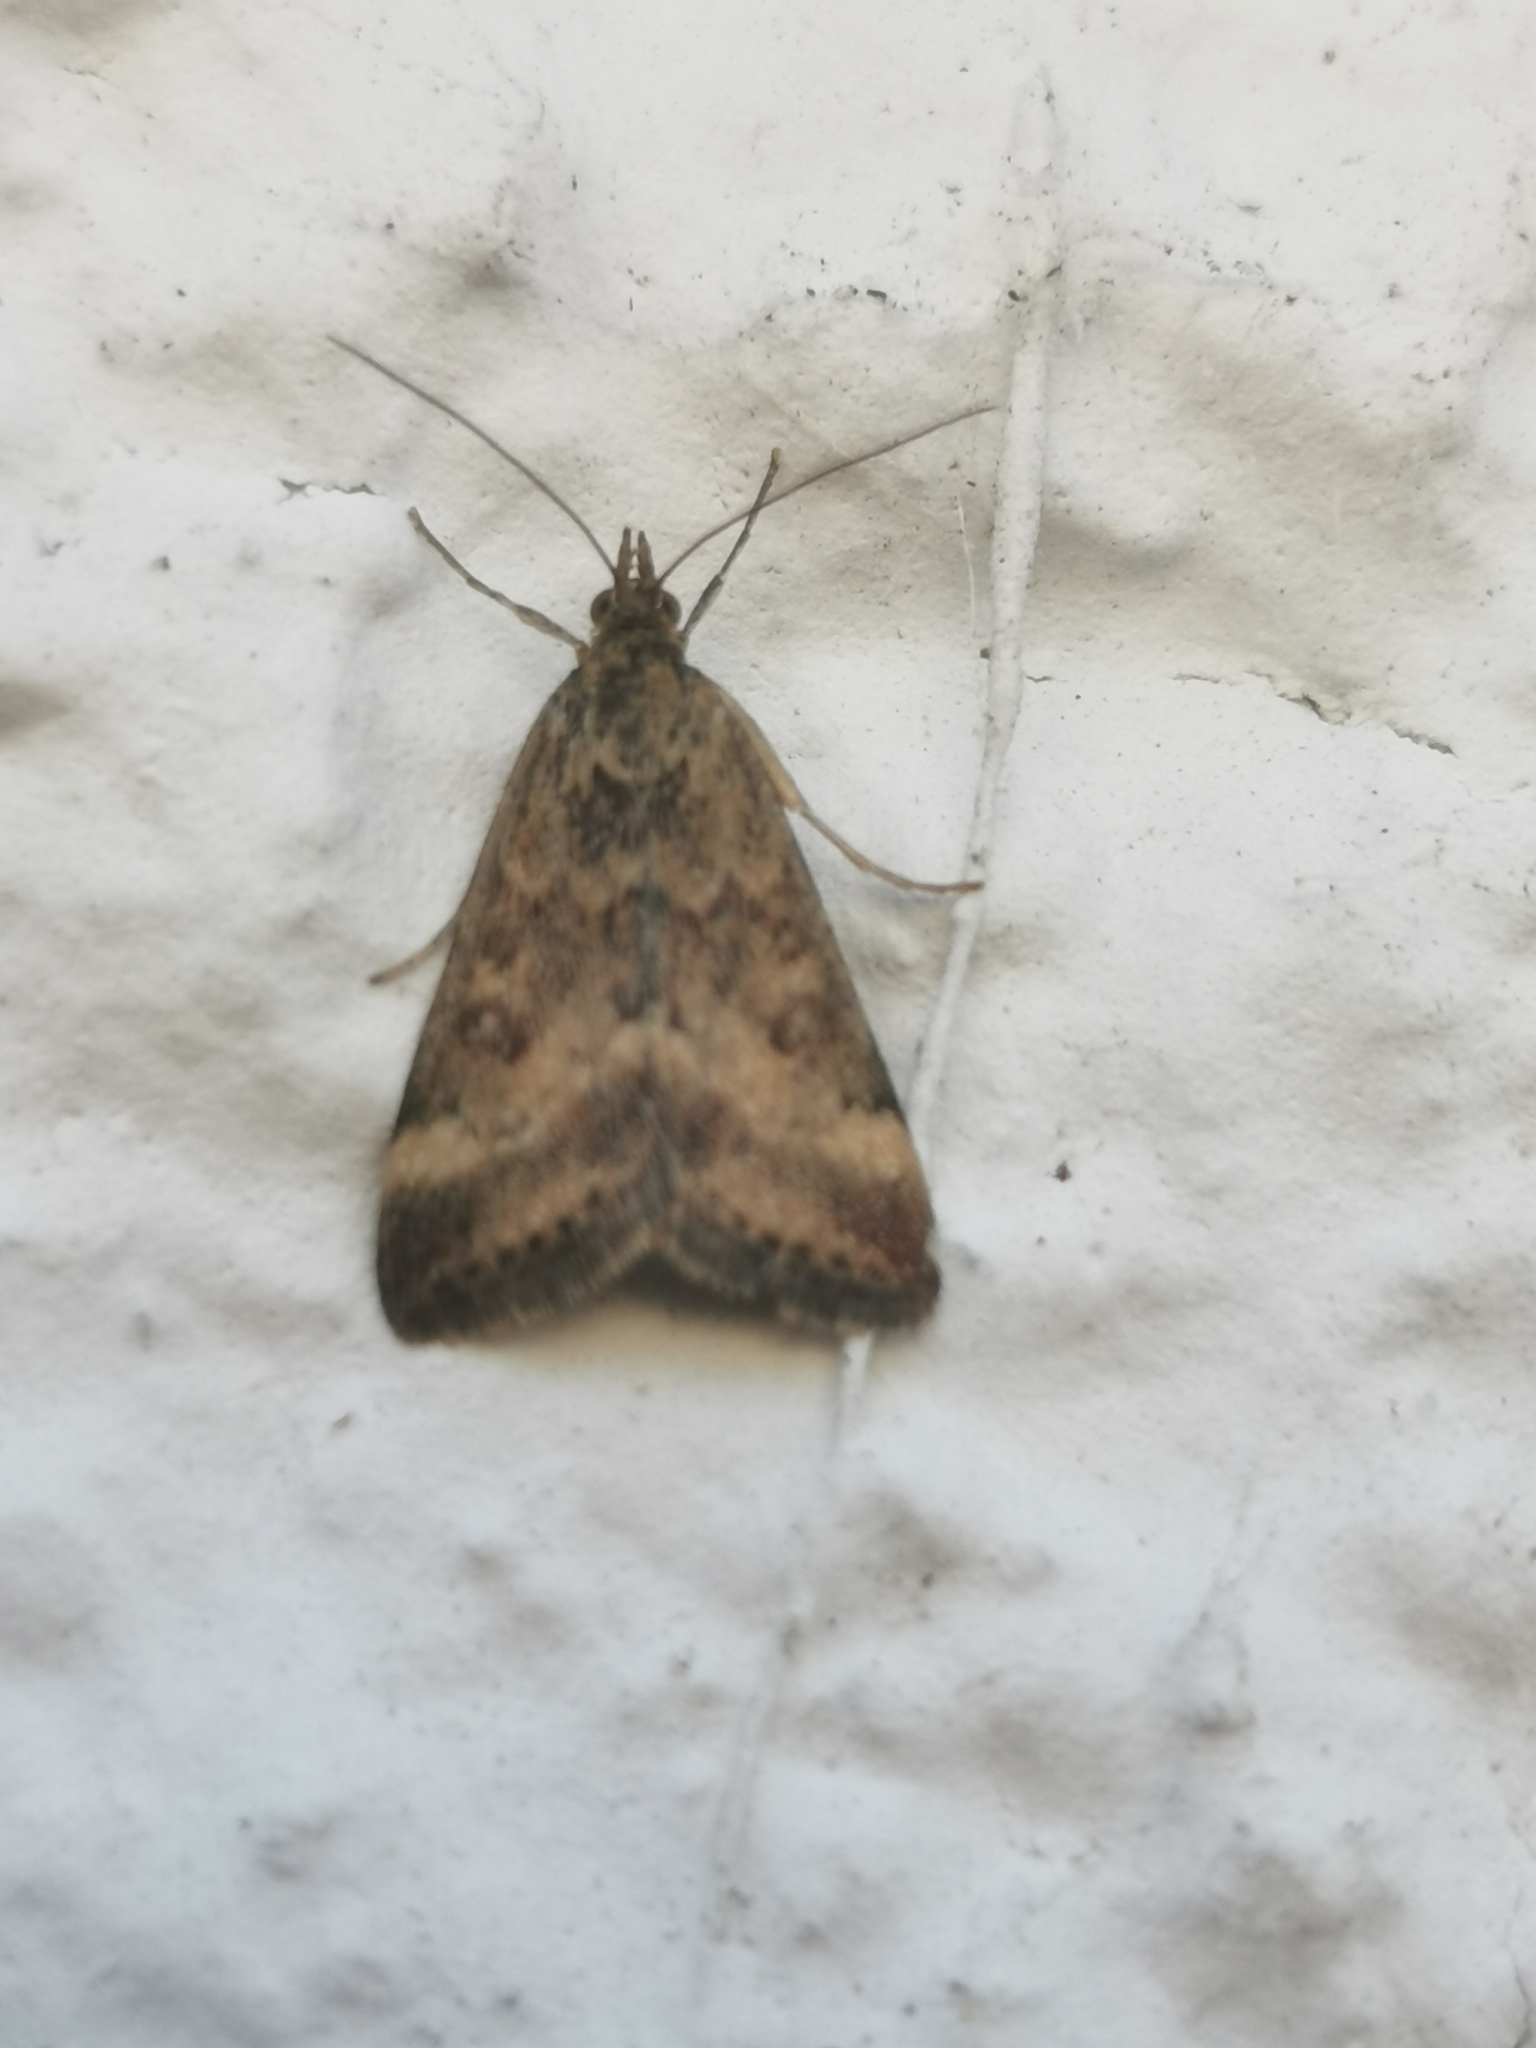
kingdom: Animalia
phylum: Arthropoda
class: Insecta
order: Lepidoptera
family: Crambidae
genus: Pyrausta
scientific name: Pyrausta despicata
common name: Straw-barred pearl
